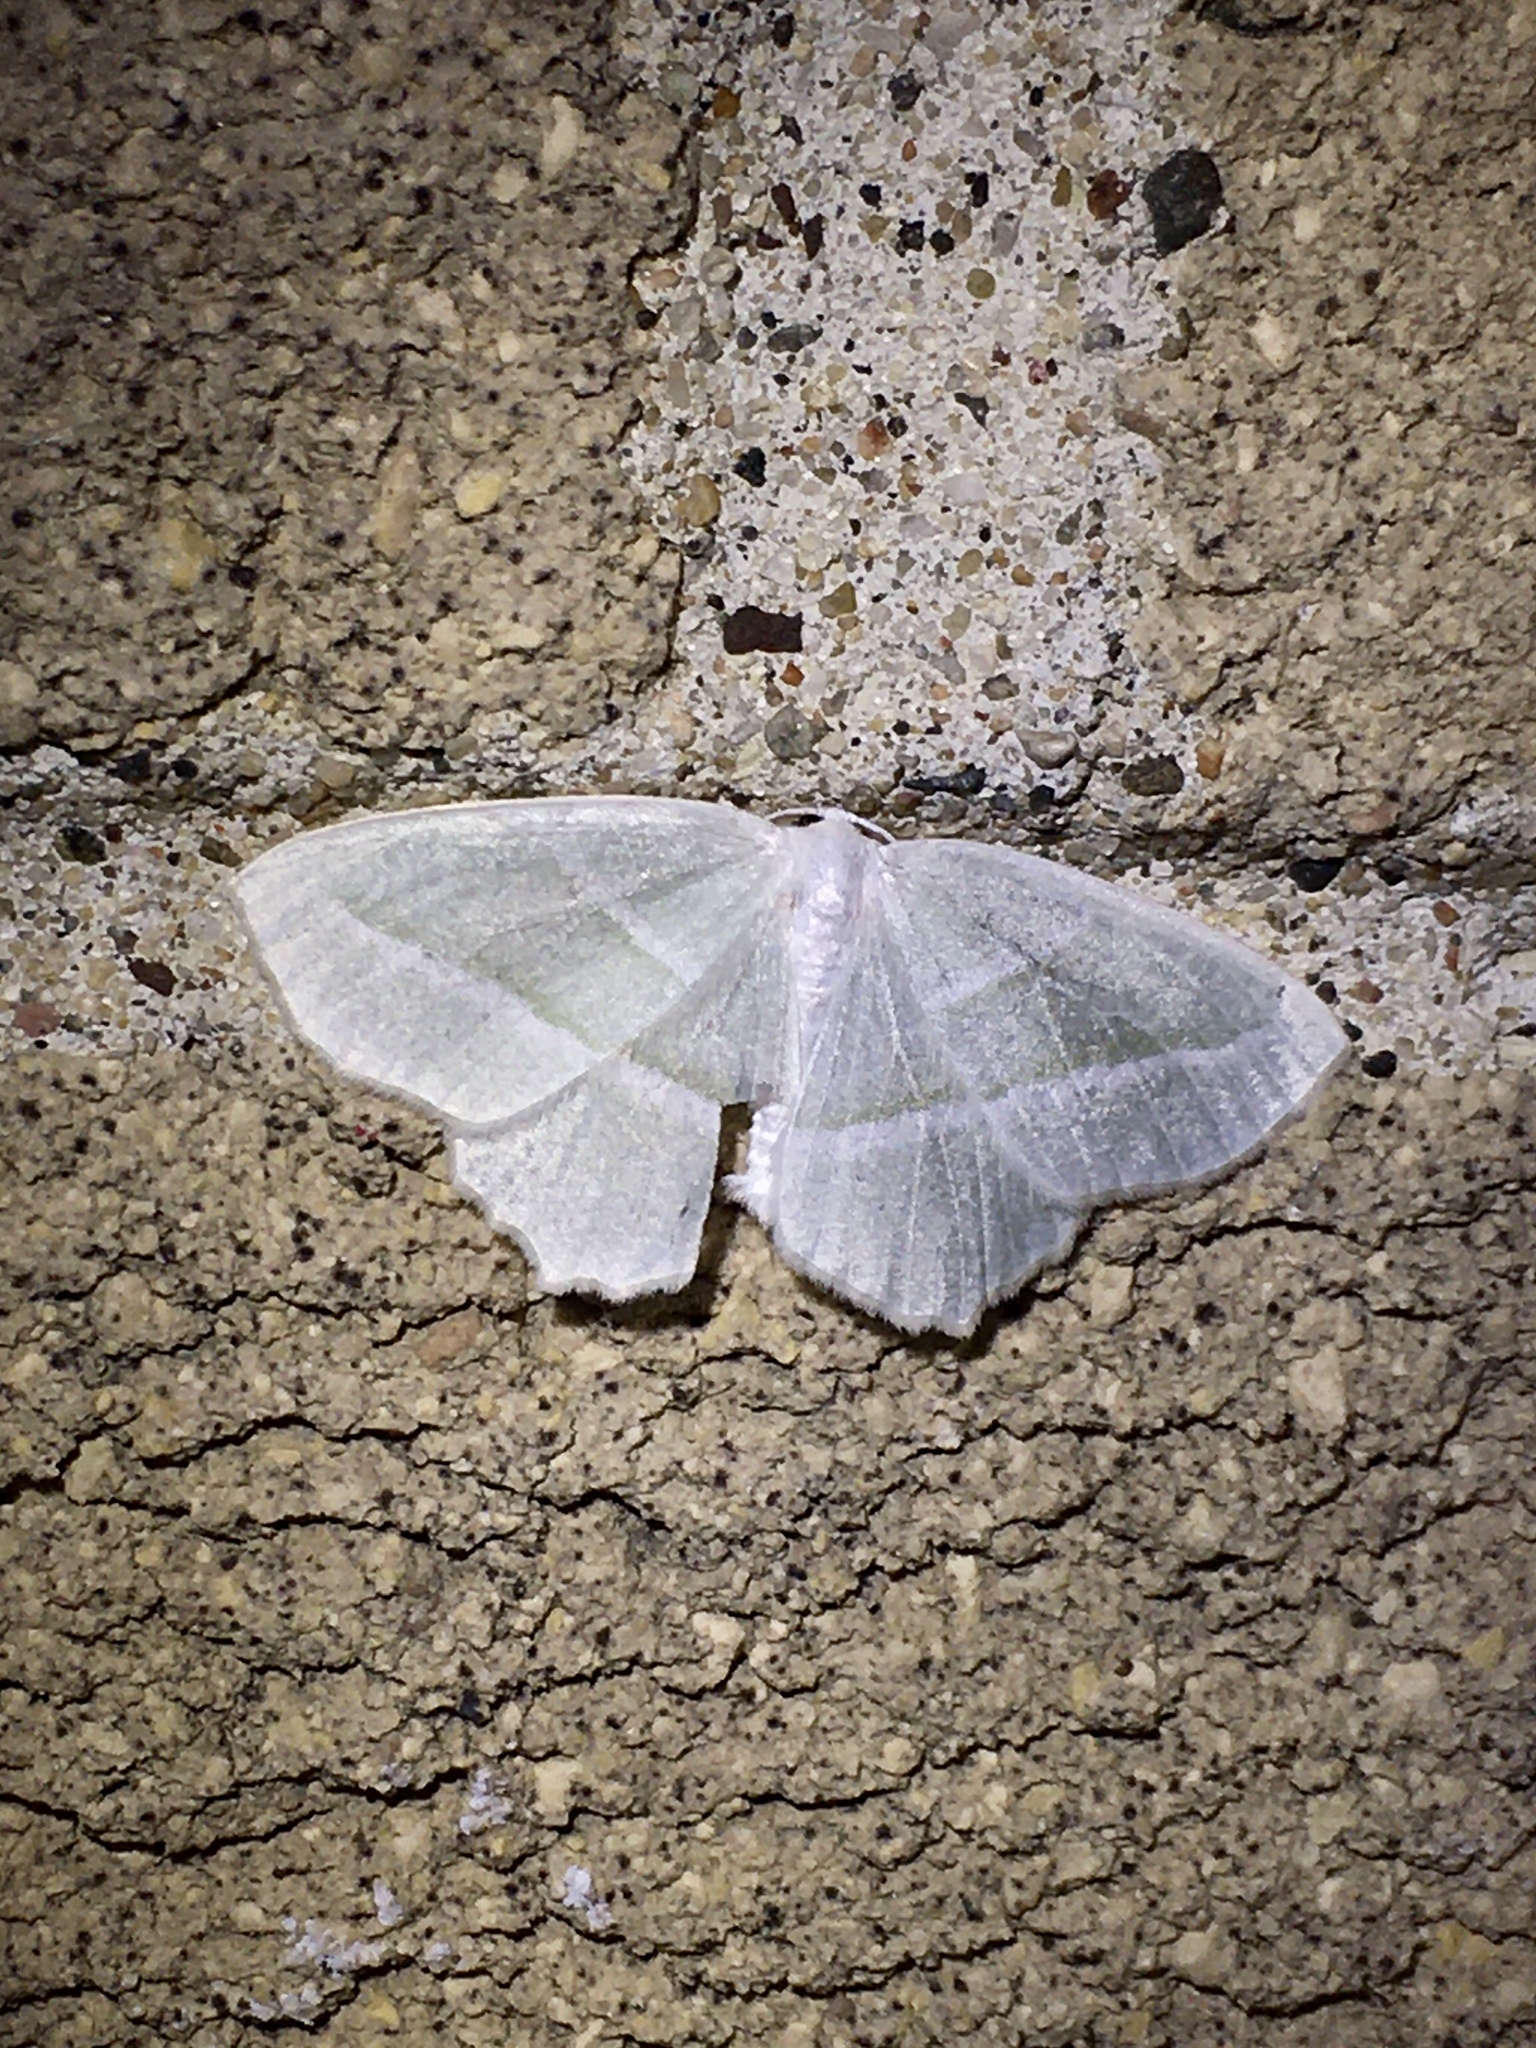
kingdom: Animalia
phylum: Arthropoda
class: Insecta
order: Lepidoptera
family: Geometridae
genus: Campaea
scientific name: Campaea perlata
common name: Fringed looper
